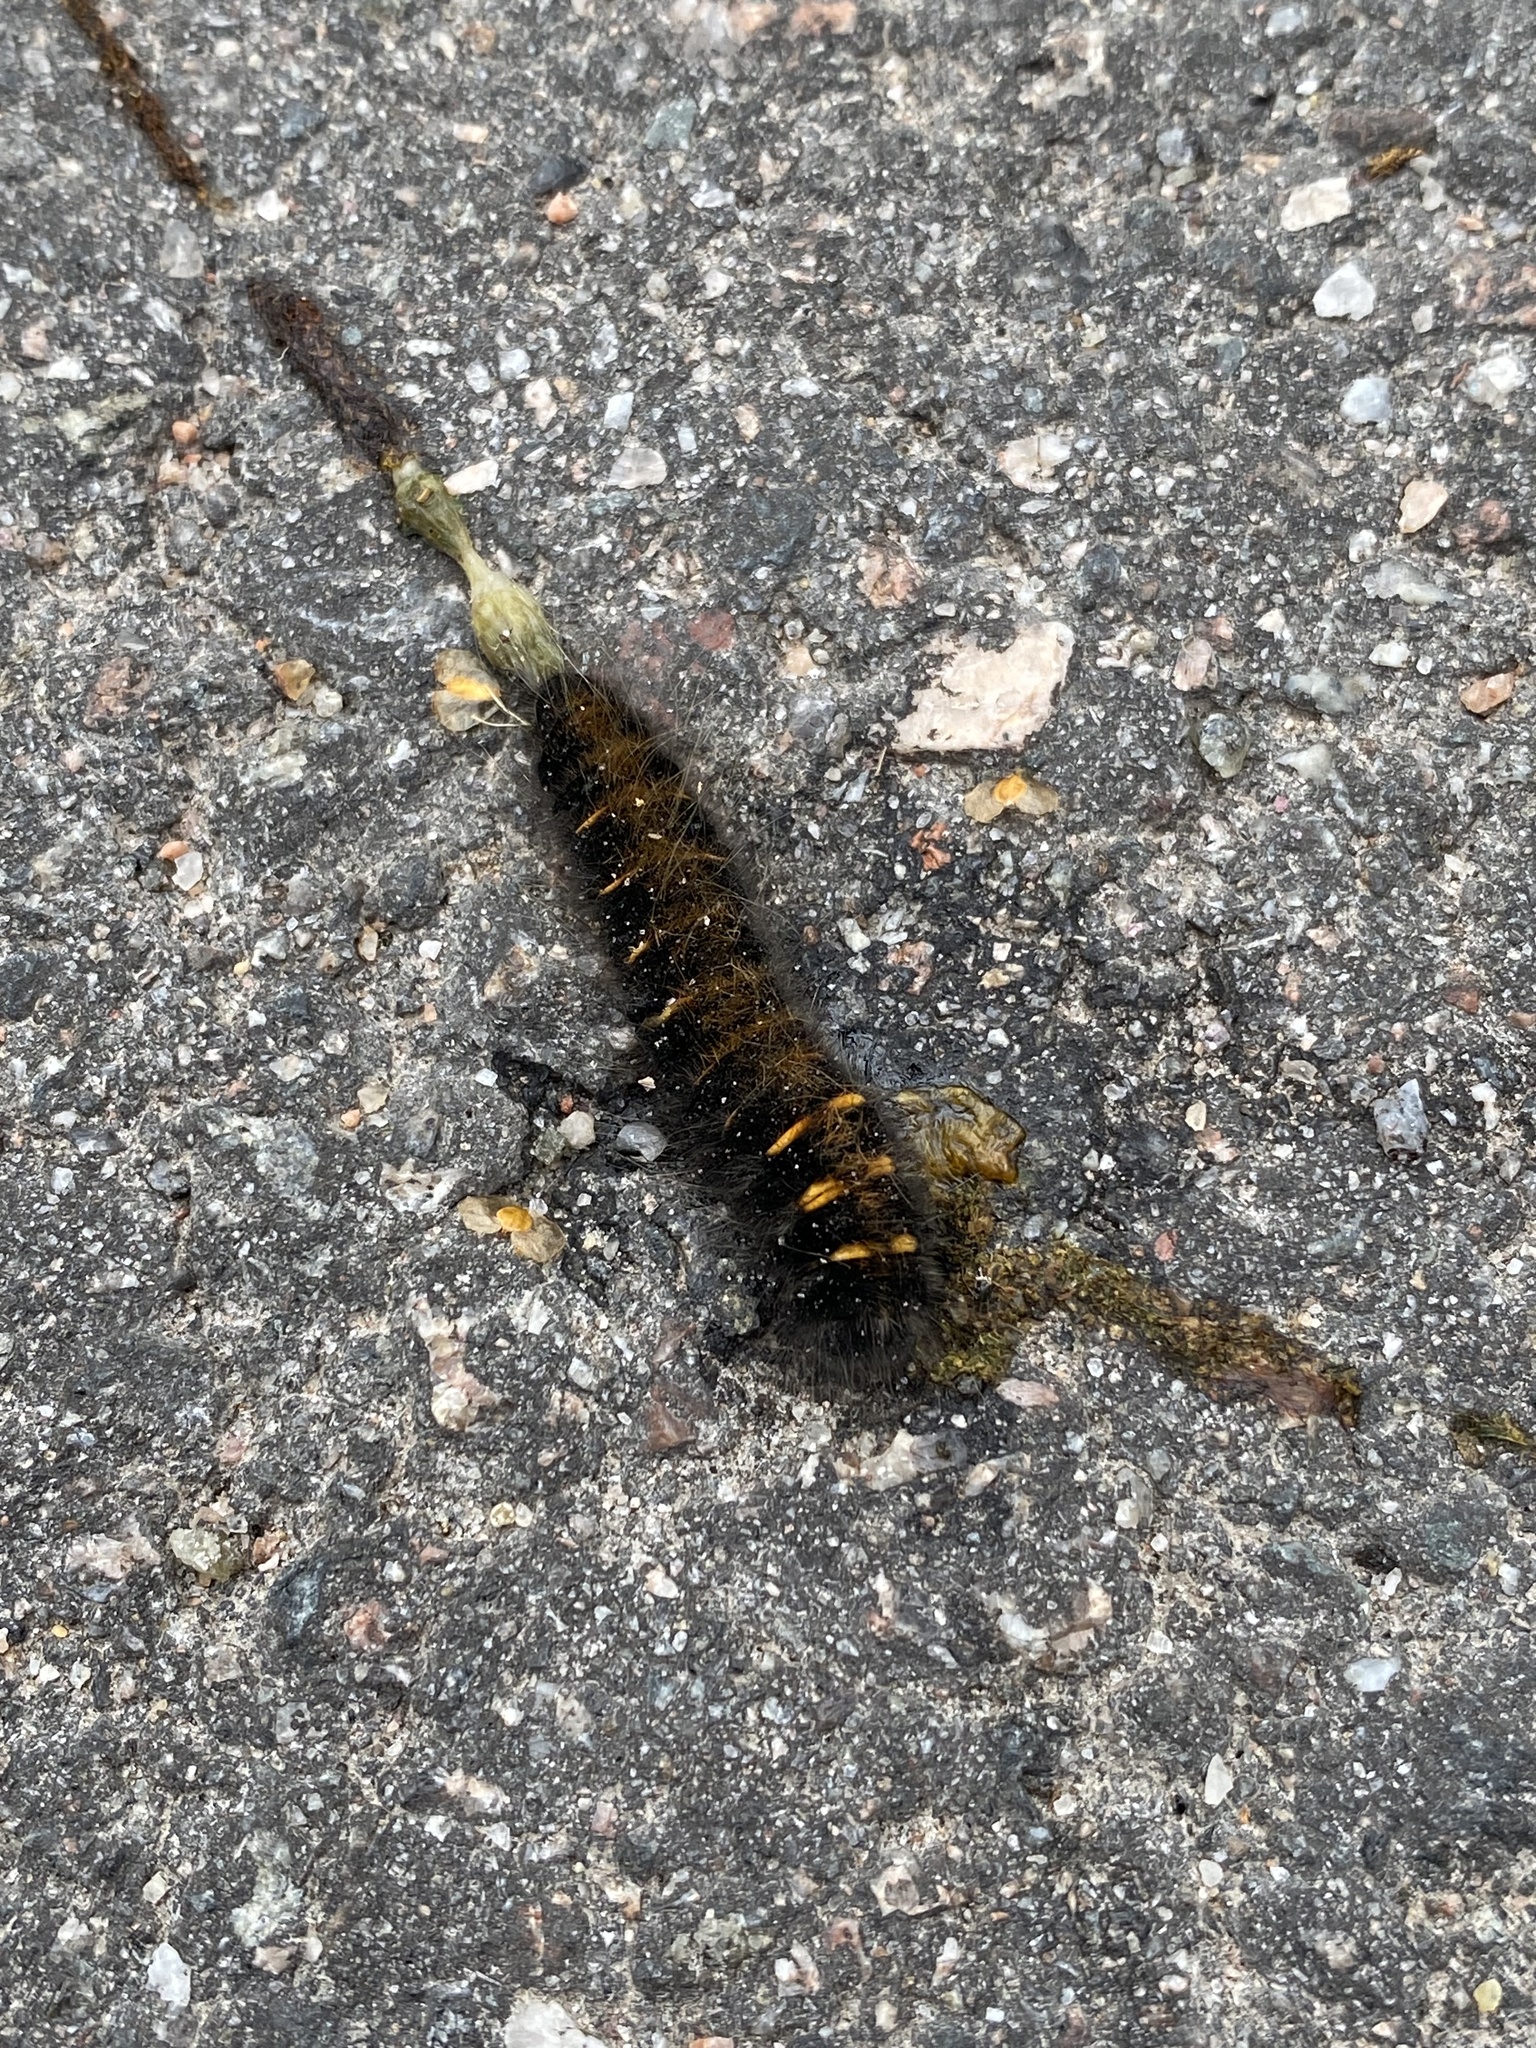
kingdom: Animalia
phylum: Arthropoda
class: Insecta
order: Lepidoptera
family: Lasiocampidae
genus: Macrothylacia
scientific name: Macrothylacia rubi
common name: Fox moth
